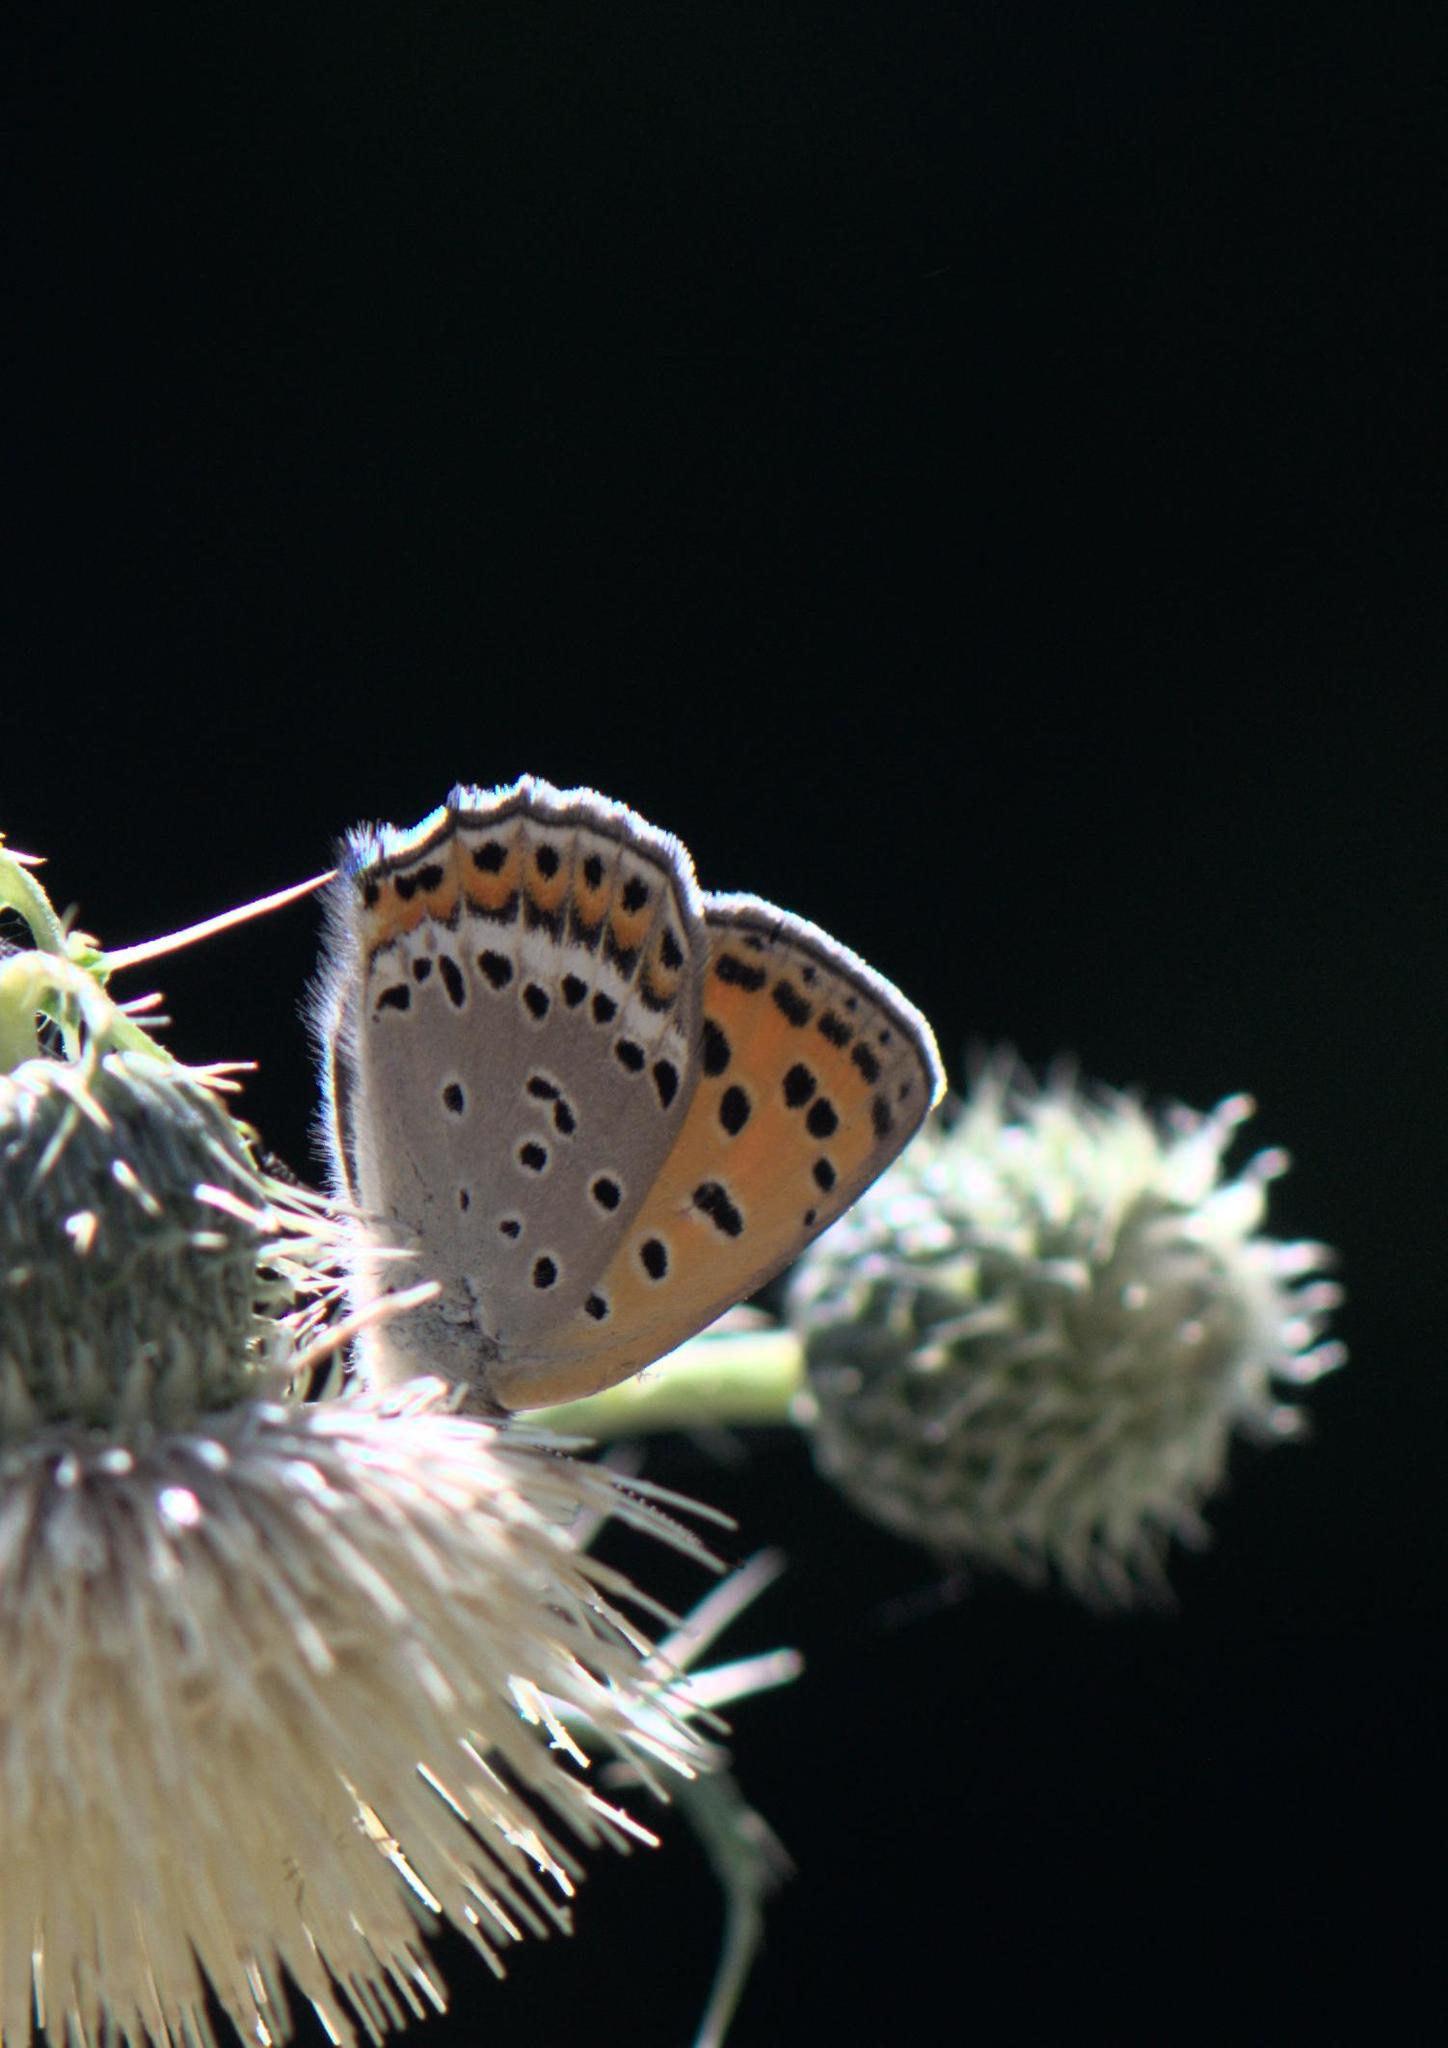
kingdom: Animalia
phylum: Arthropoda
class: Insecta
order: Lepidoptera
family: Lycaenidae
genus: Lycaena
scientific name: Lycaena panava
